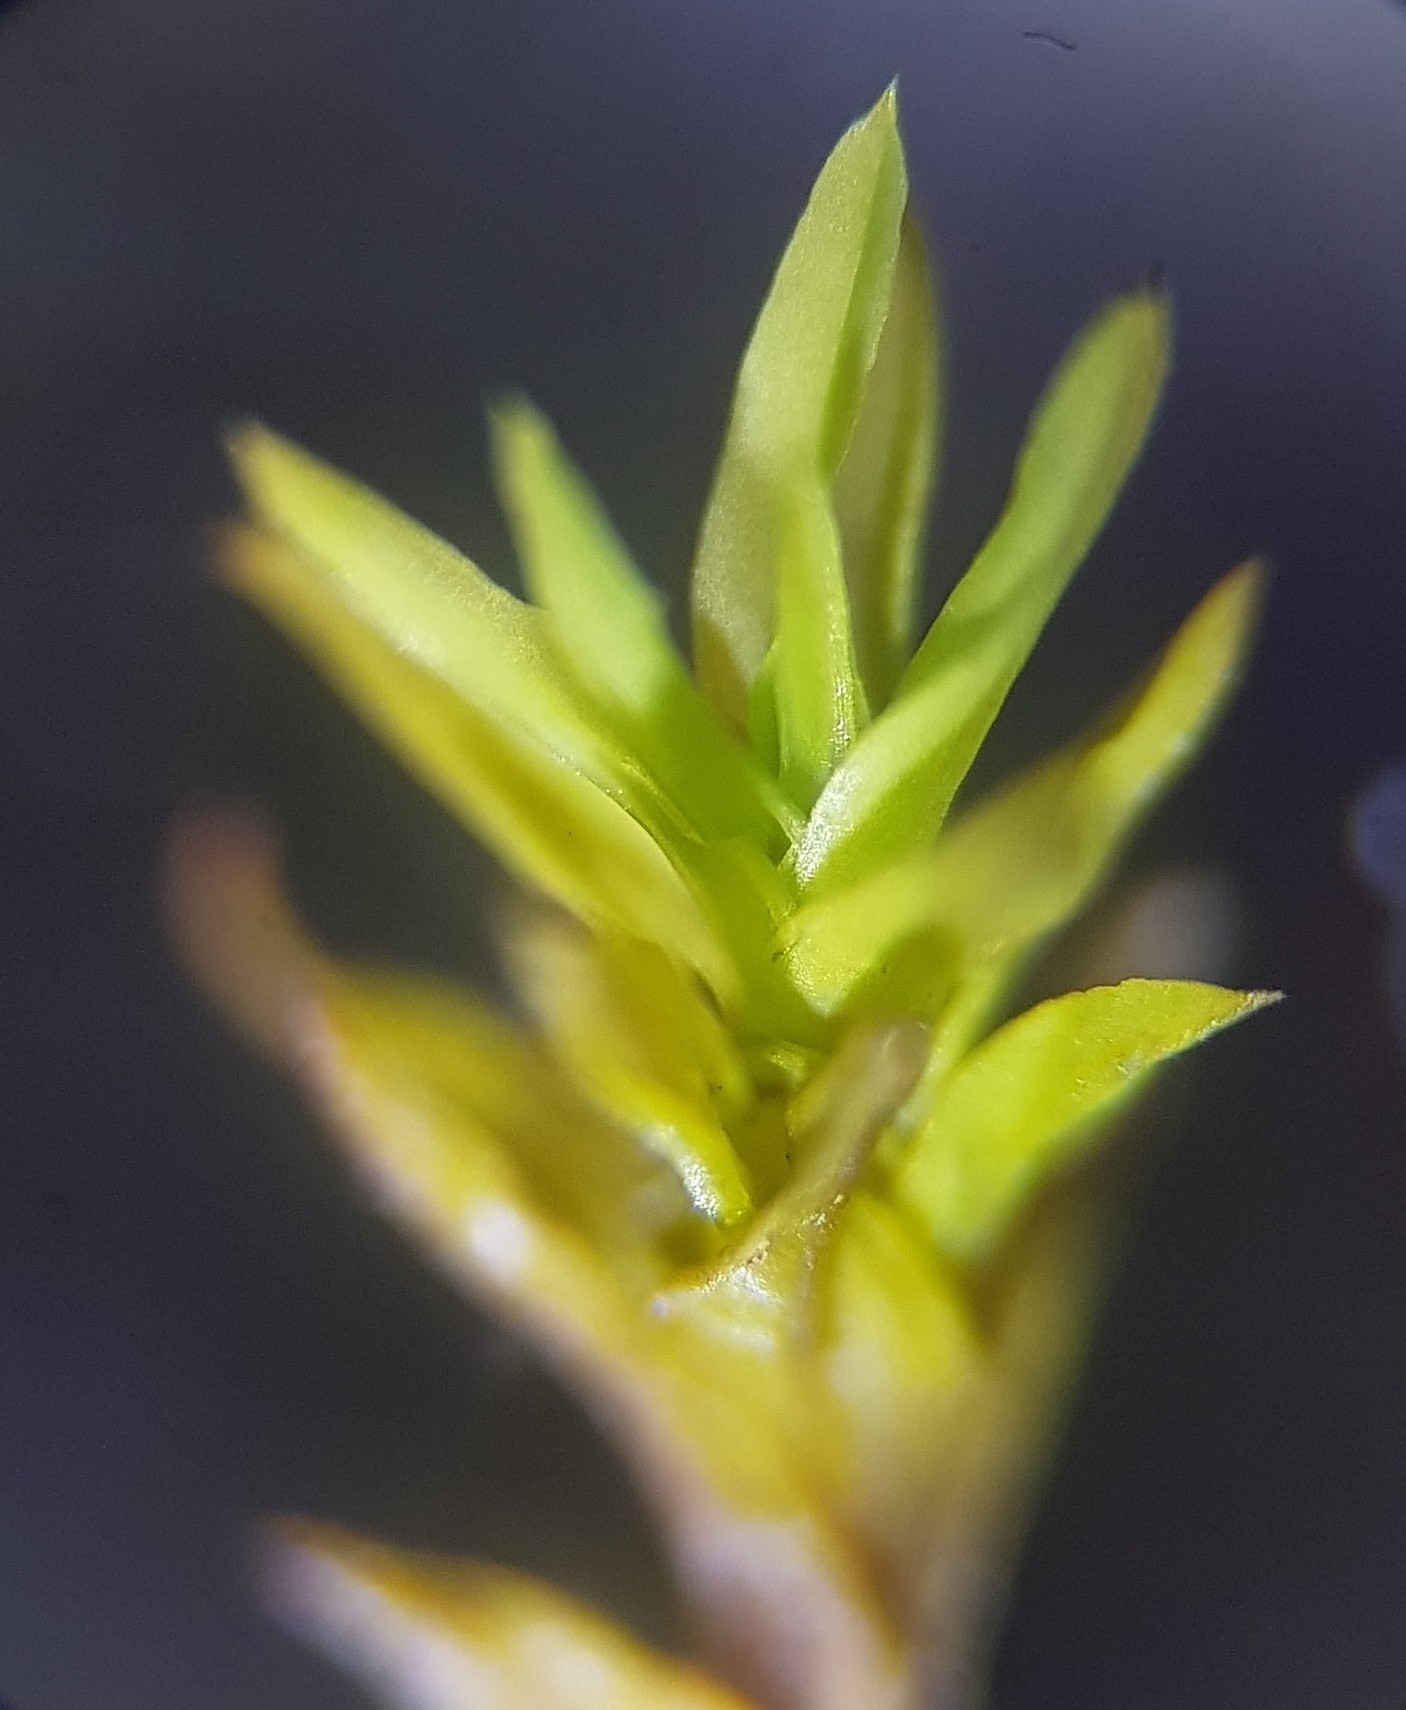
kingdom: Plantae
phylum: Bryophyta
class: Bryopsida
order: Pottiales
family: Pottiaceae
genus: Barbula
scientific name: Barbula unguiculata
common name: Prickly beard moss
